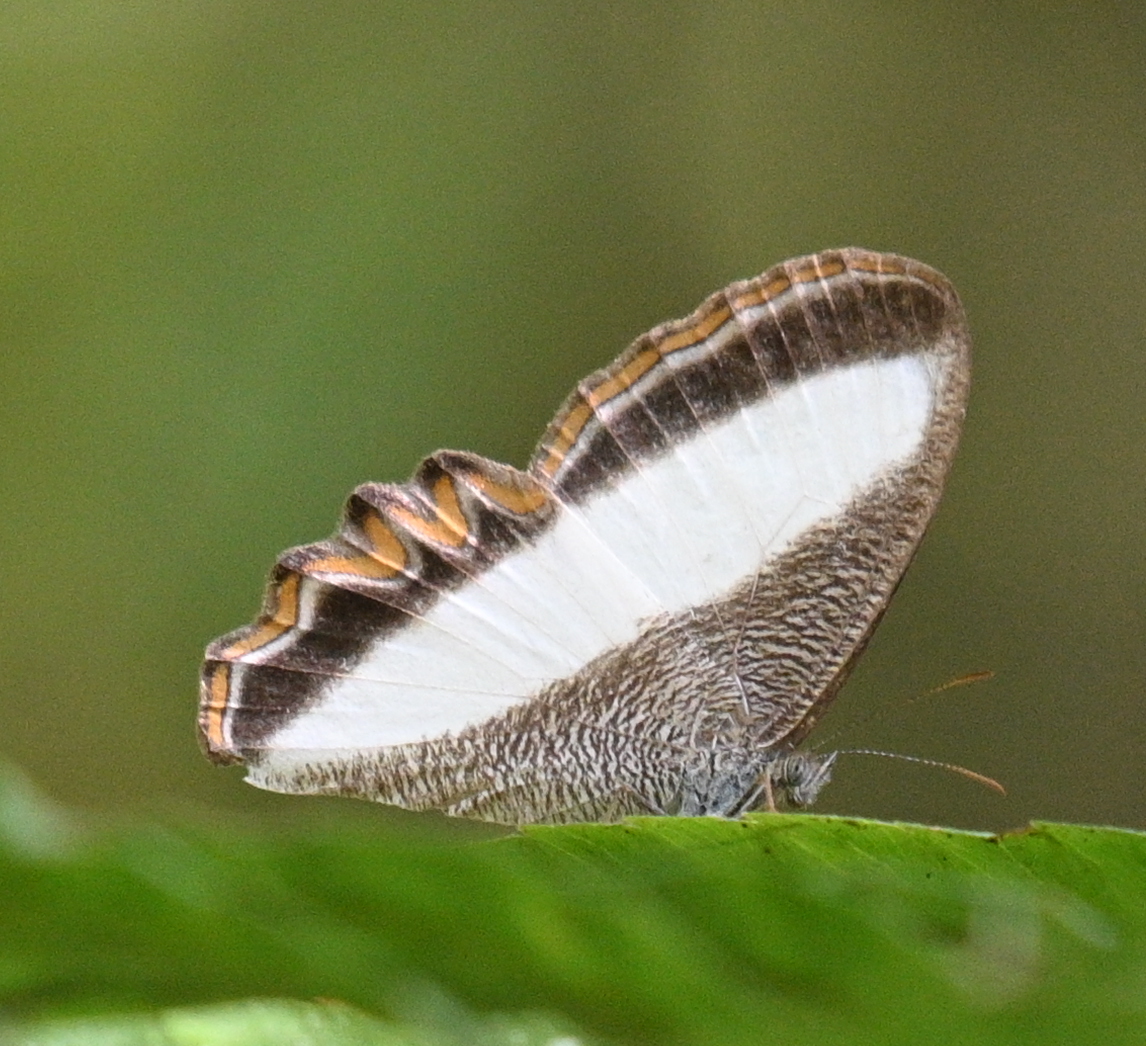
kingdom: Animalia
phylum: Arthropoda
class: Insecta
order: Lepidoptera
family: Nymphalidae
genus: Oressinoma
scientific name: Oressinoma typhla
